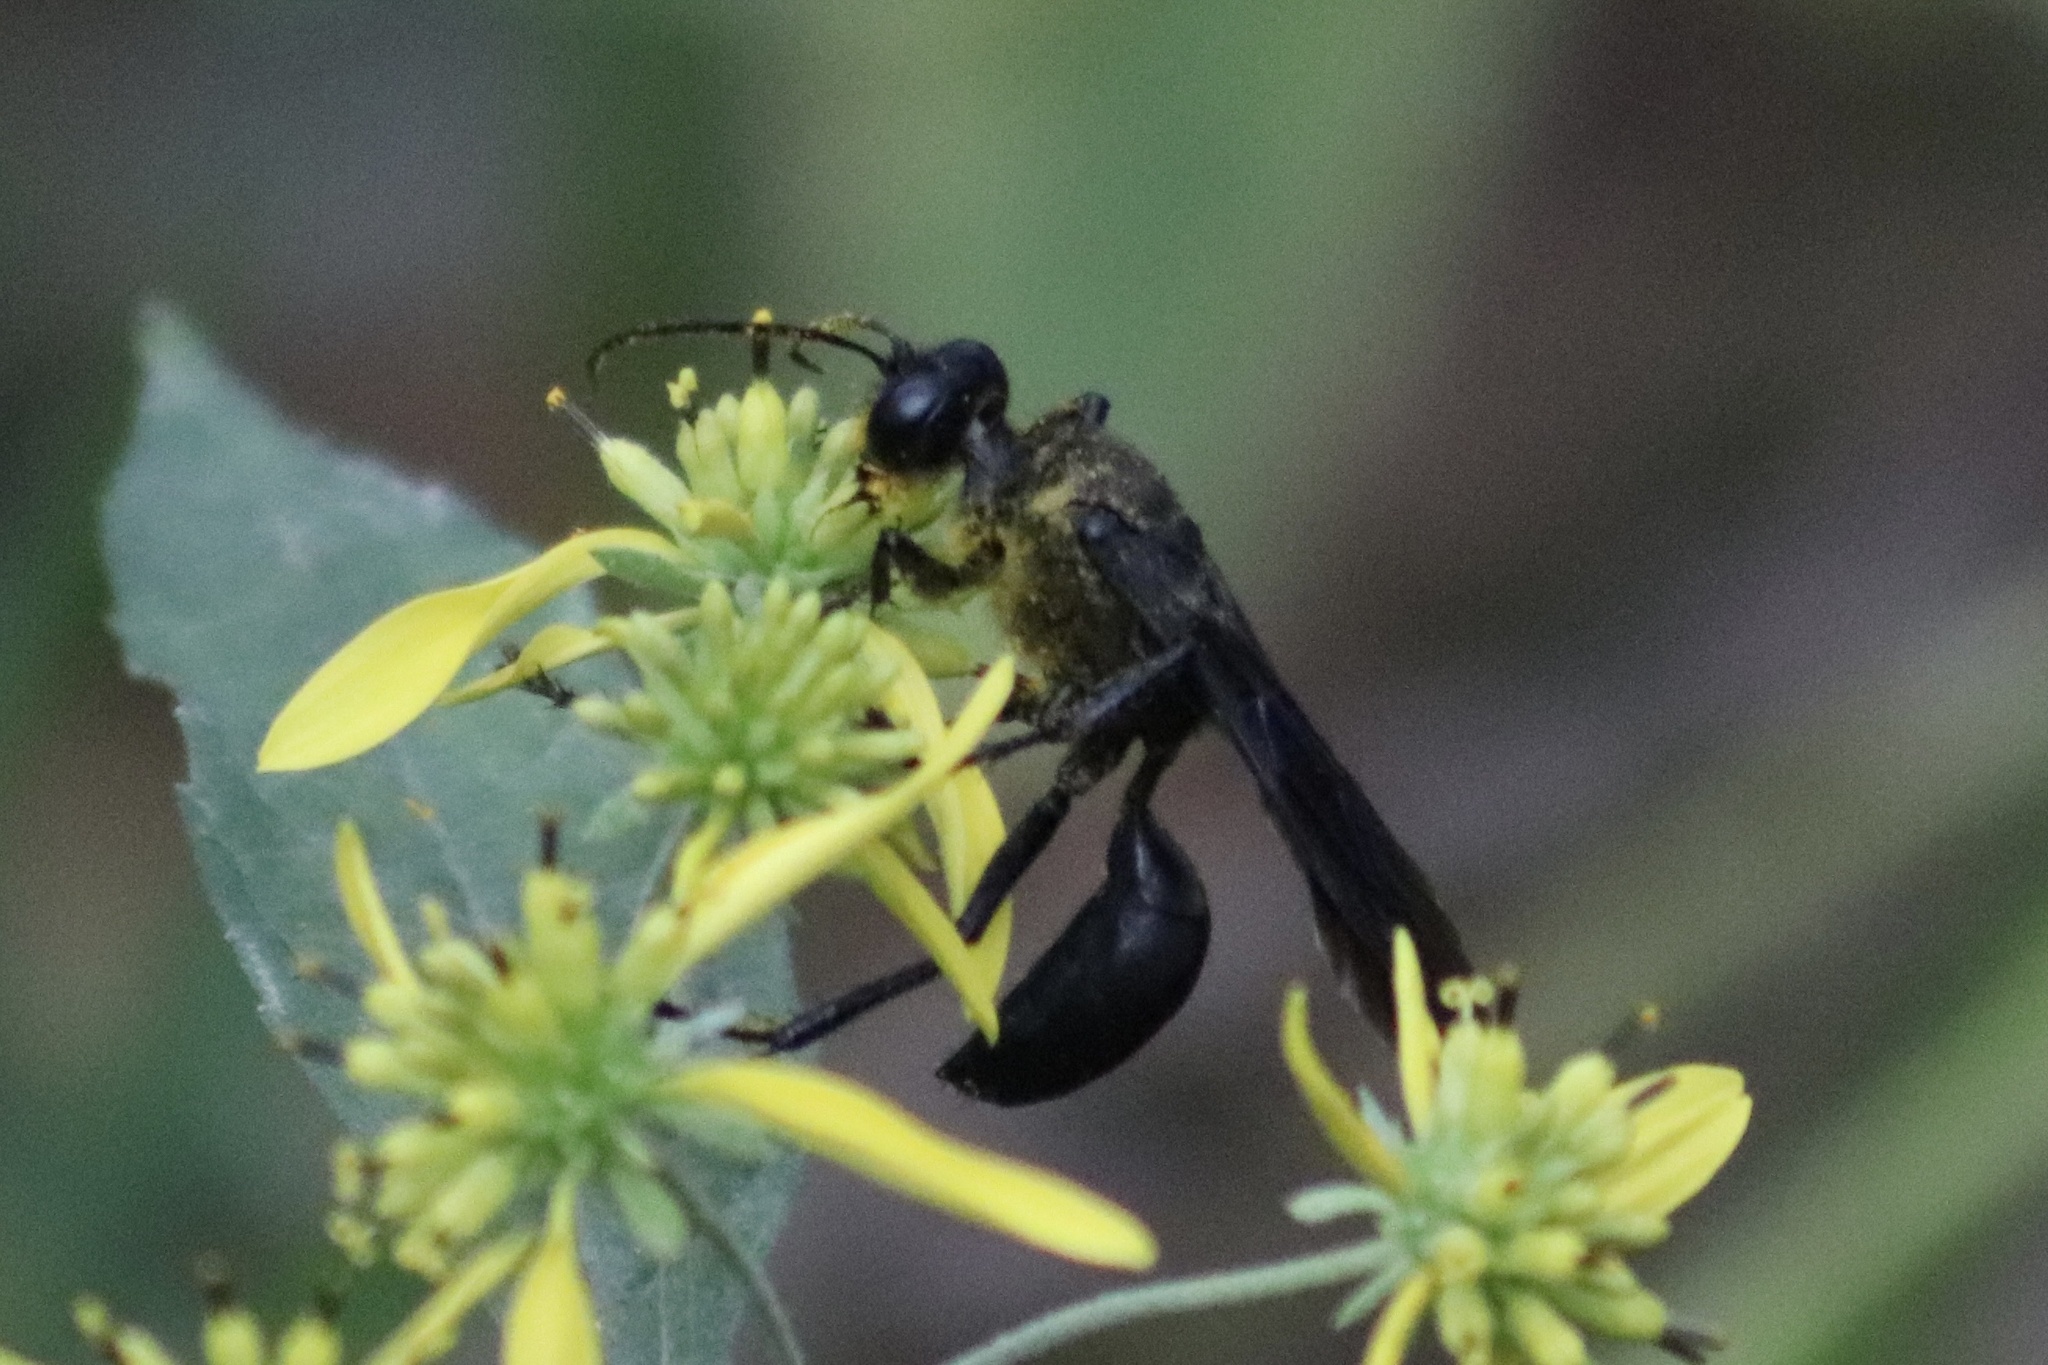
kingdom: Animalia
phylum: Arthropoda
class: Insecta
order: Hymenoptera
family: Sphecidae
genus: Sphex
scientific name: Sphex pensylvanicus
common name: Great black digger wasp
